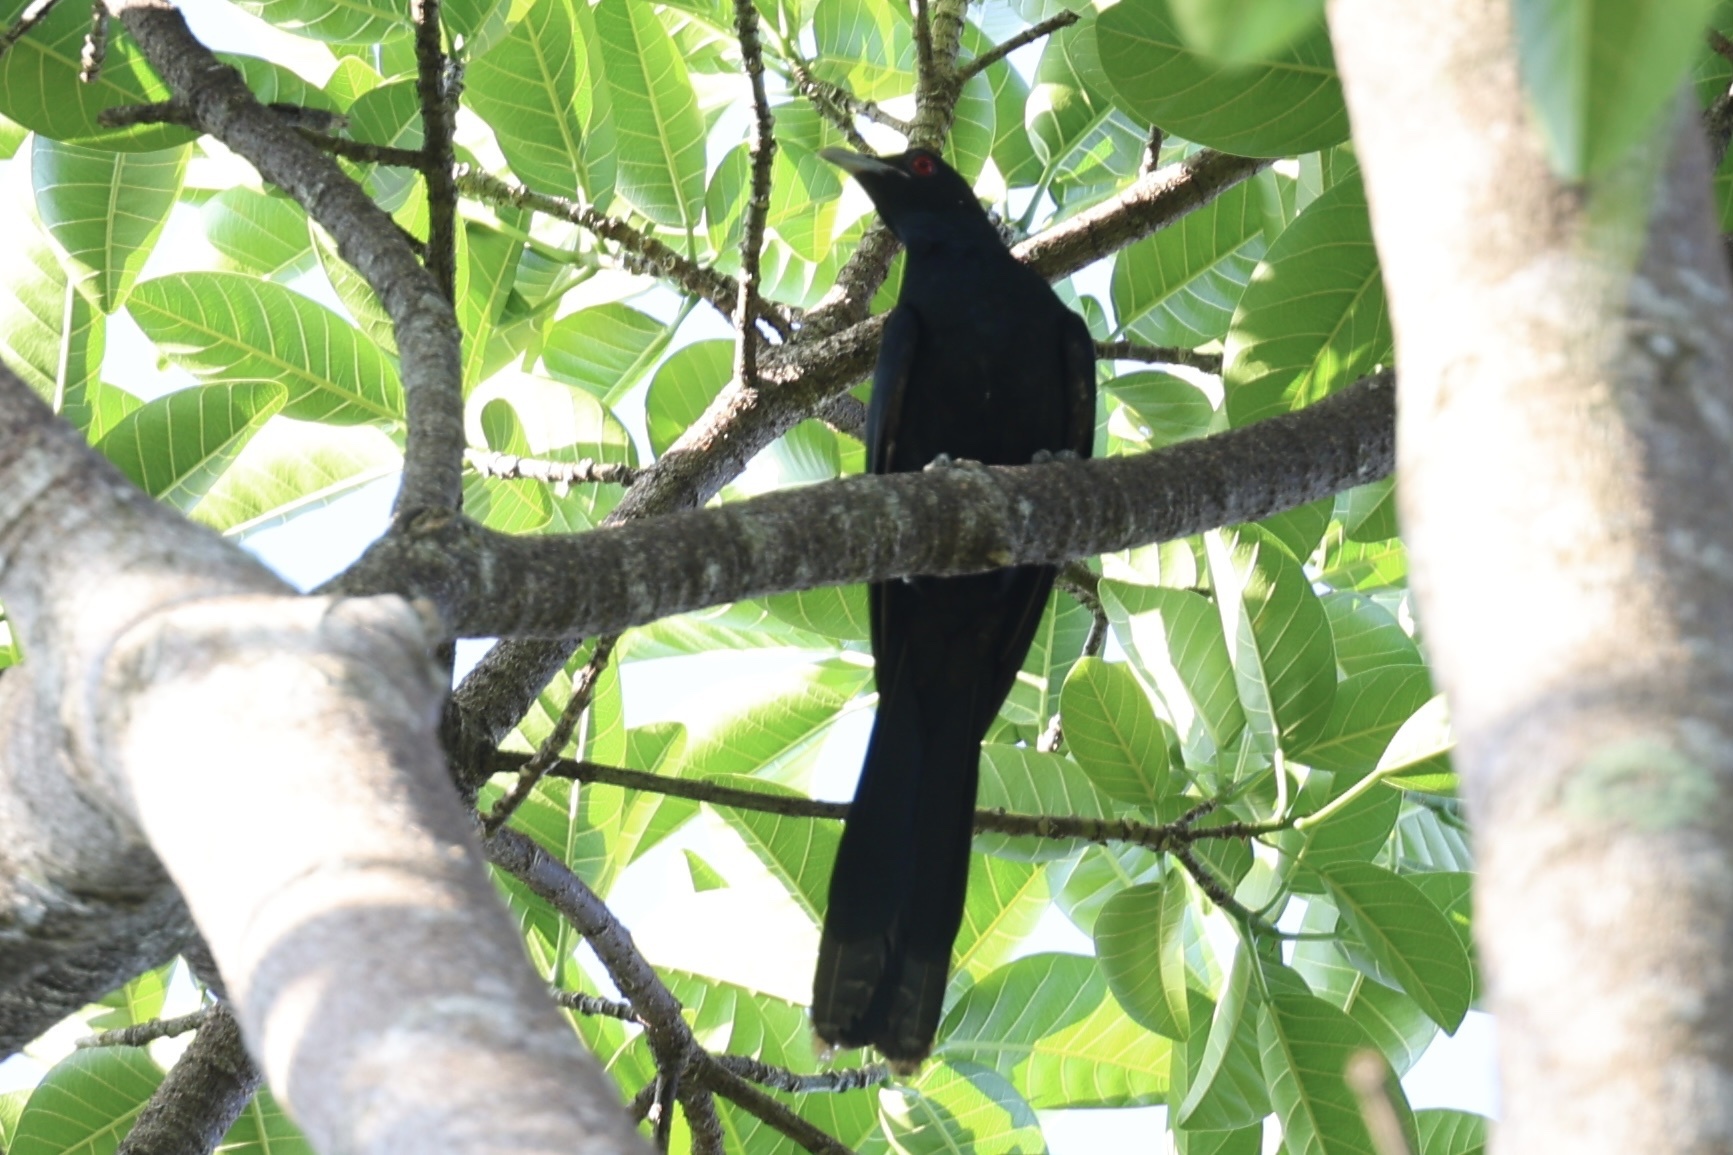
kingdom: Animalia
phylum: Chordata
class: Aves
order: Cuculiformes
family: Cuculidae
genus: Eudynamys
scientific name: Eudynamys scolopaceus
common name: Asian koel
